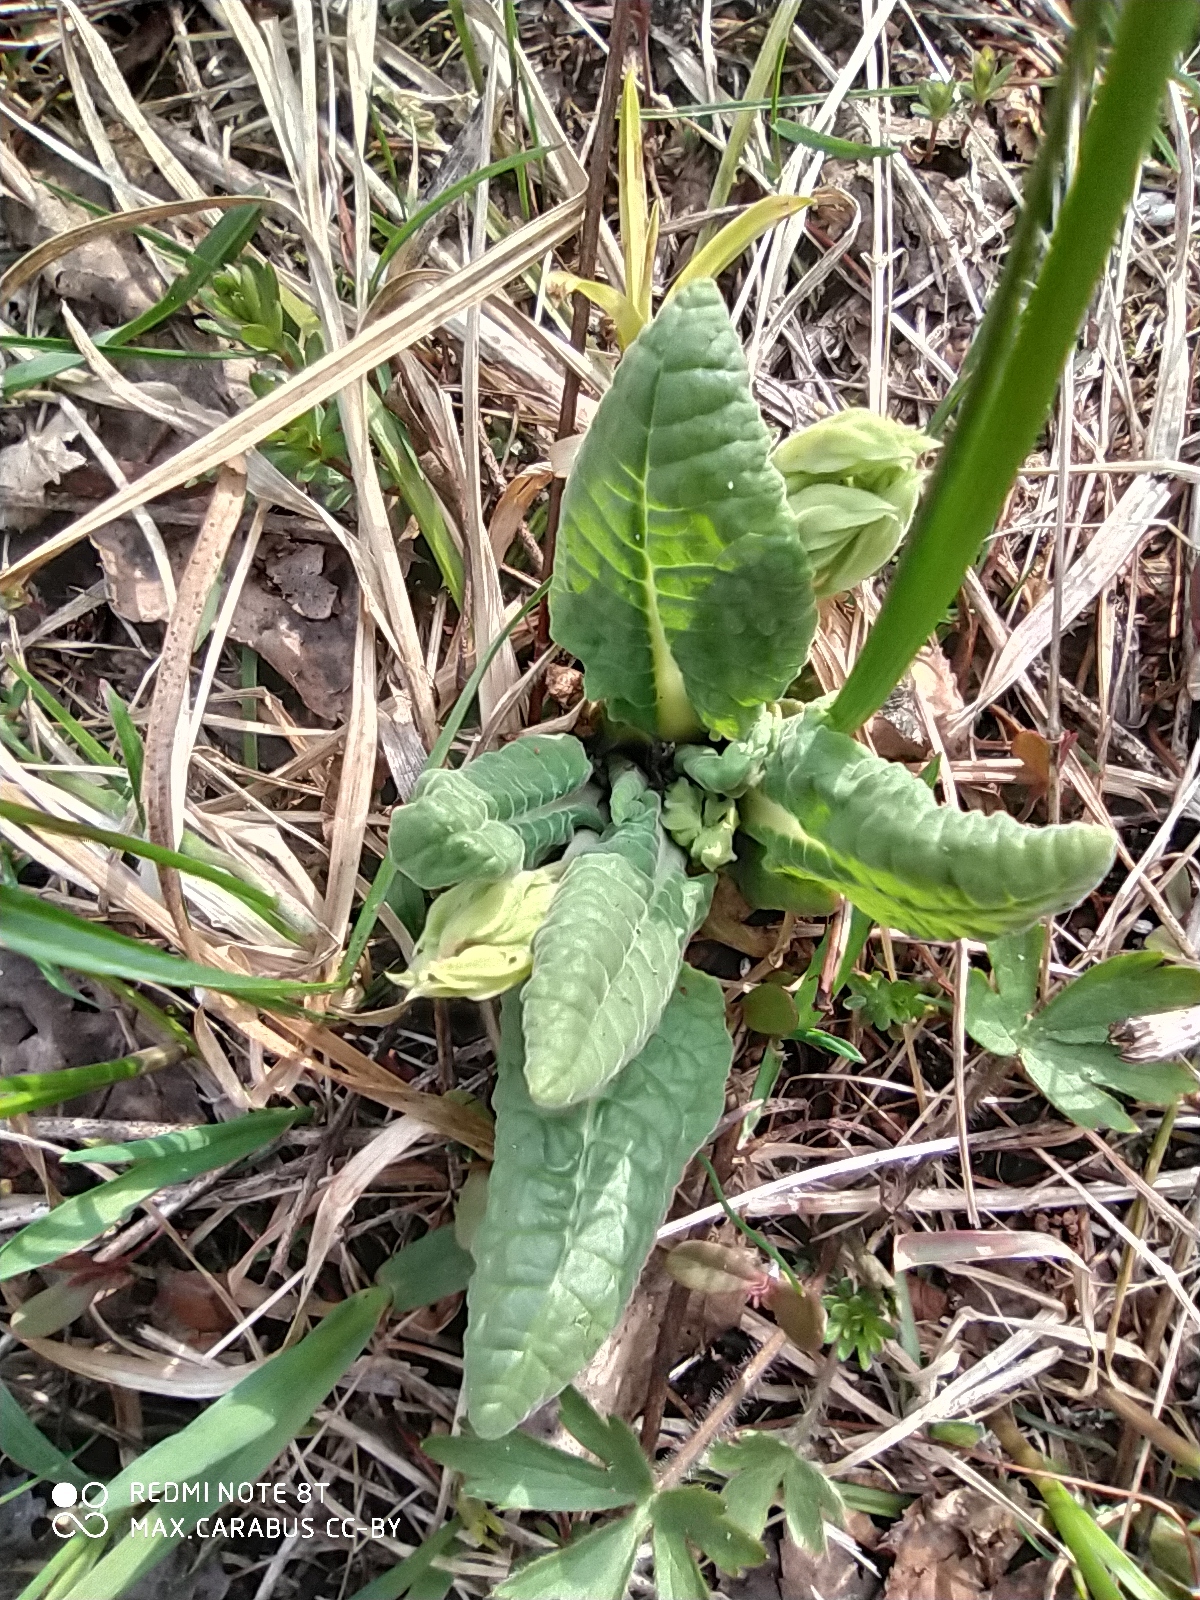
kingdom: Plantae
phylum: Tracheophyta
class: Magnoliopsida
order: Ericales
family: Primulaceae
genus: Primula
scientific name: Primula veris
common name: Cowslip
